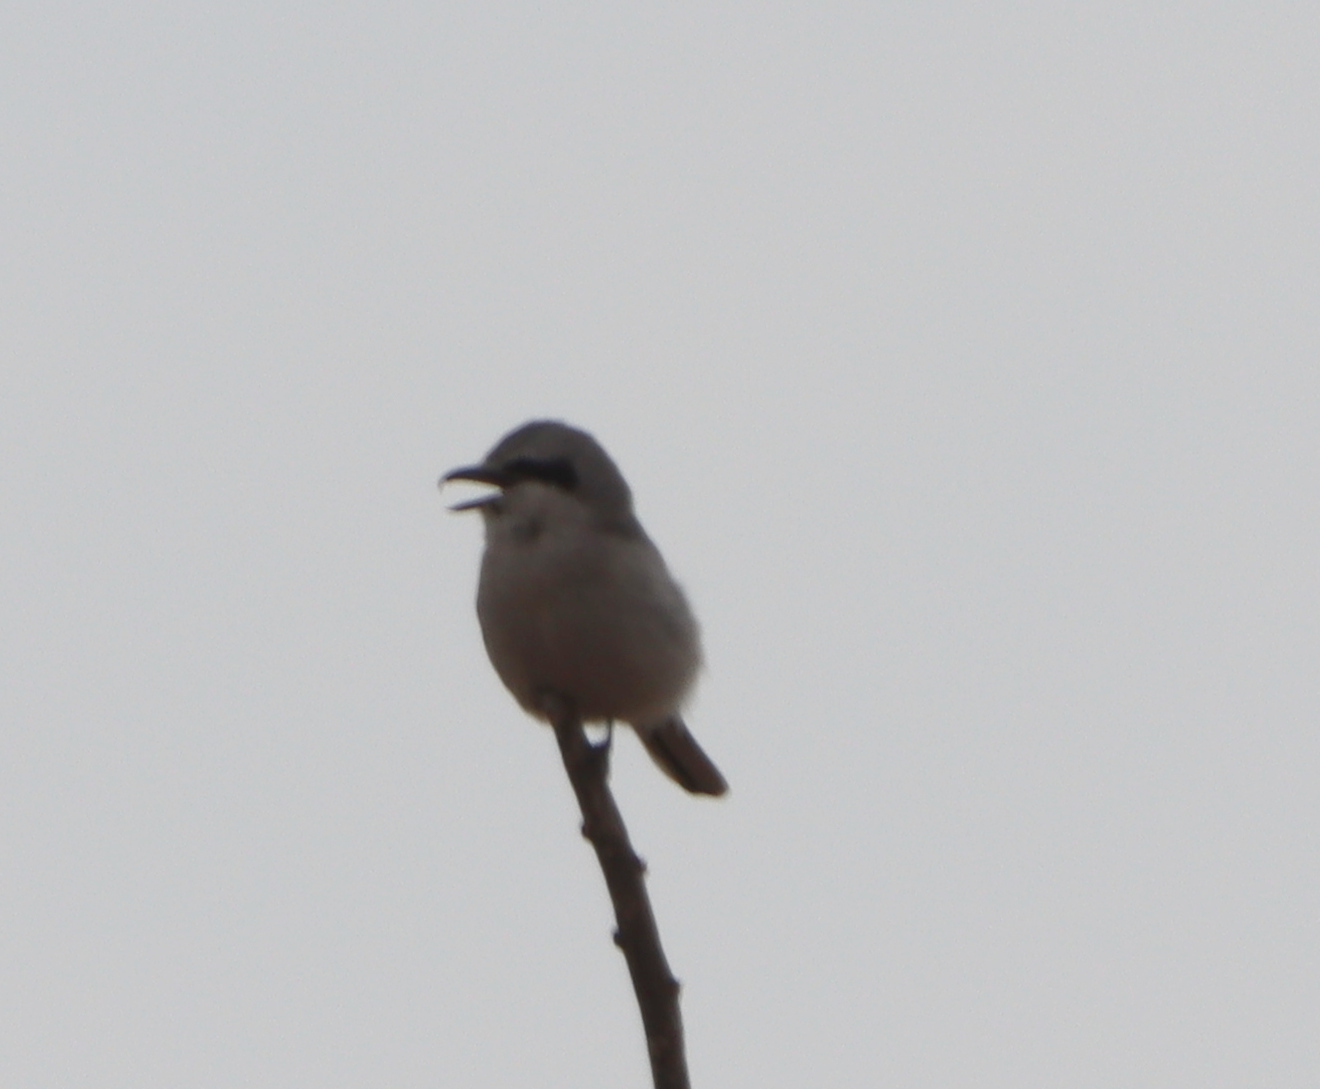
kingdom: Animalia
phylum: Chordata
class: Aves
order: Passeriformes
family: Laniidae
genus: Lanius
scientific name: Lanius borealis
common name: Northern shrike
